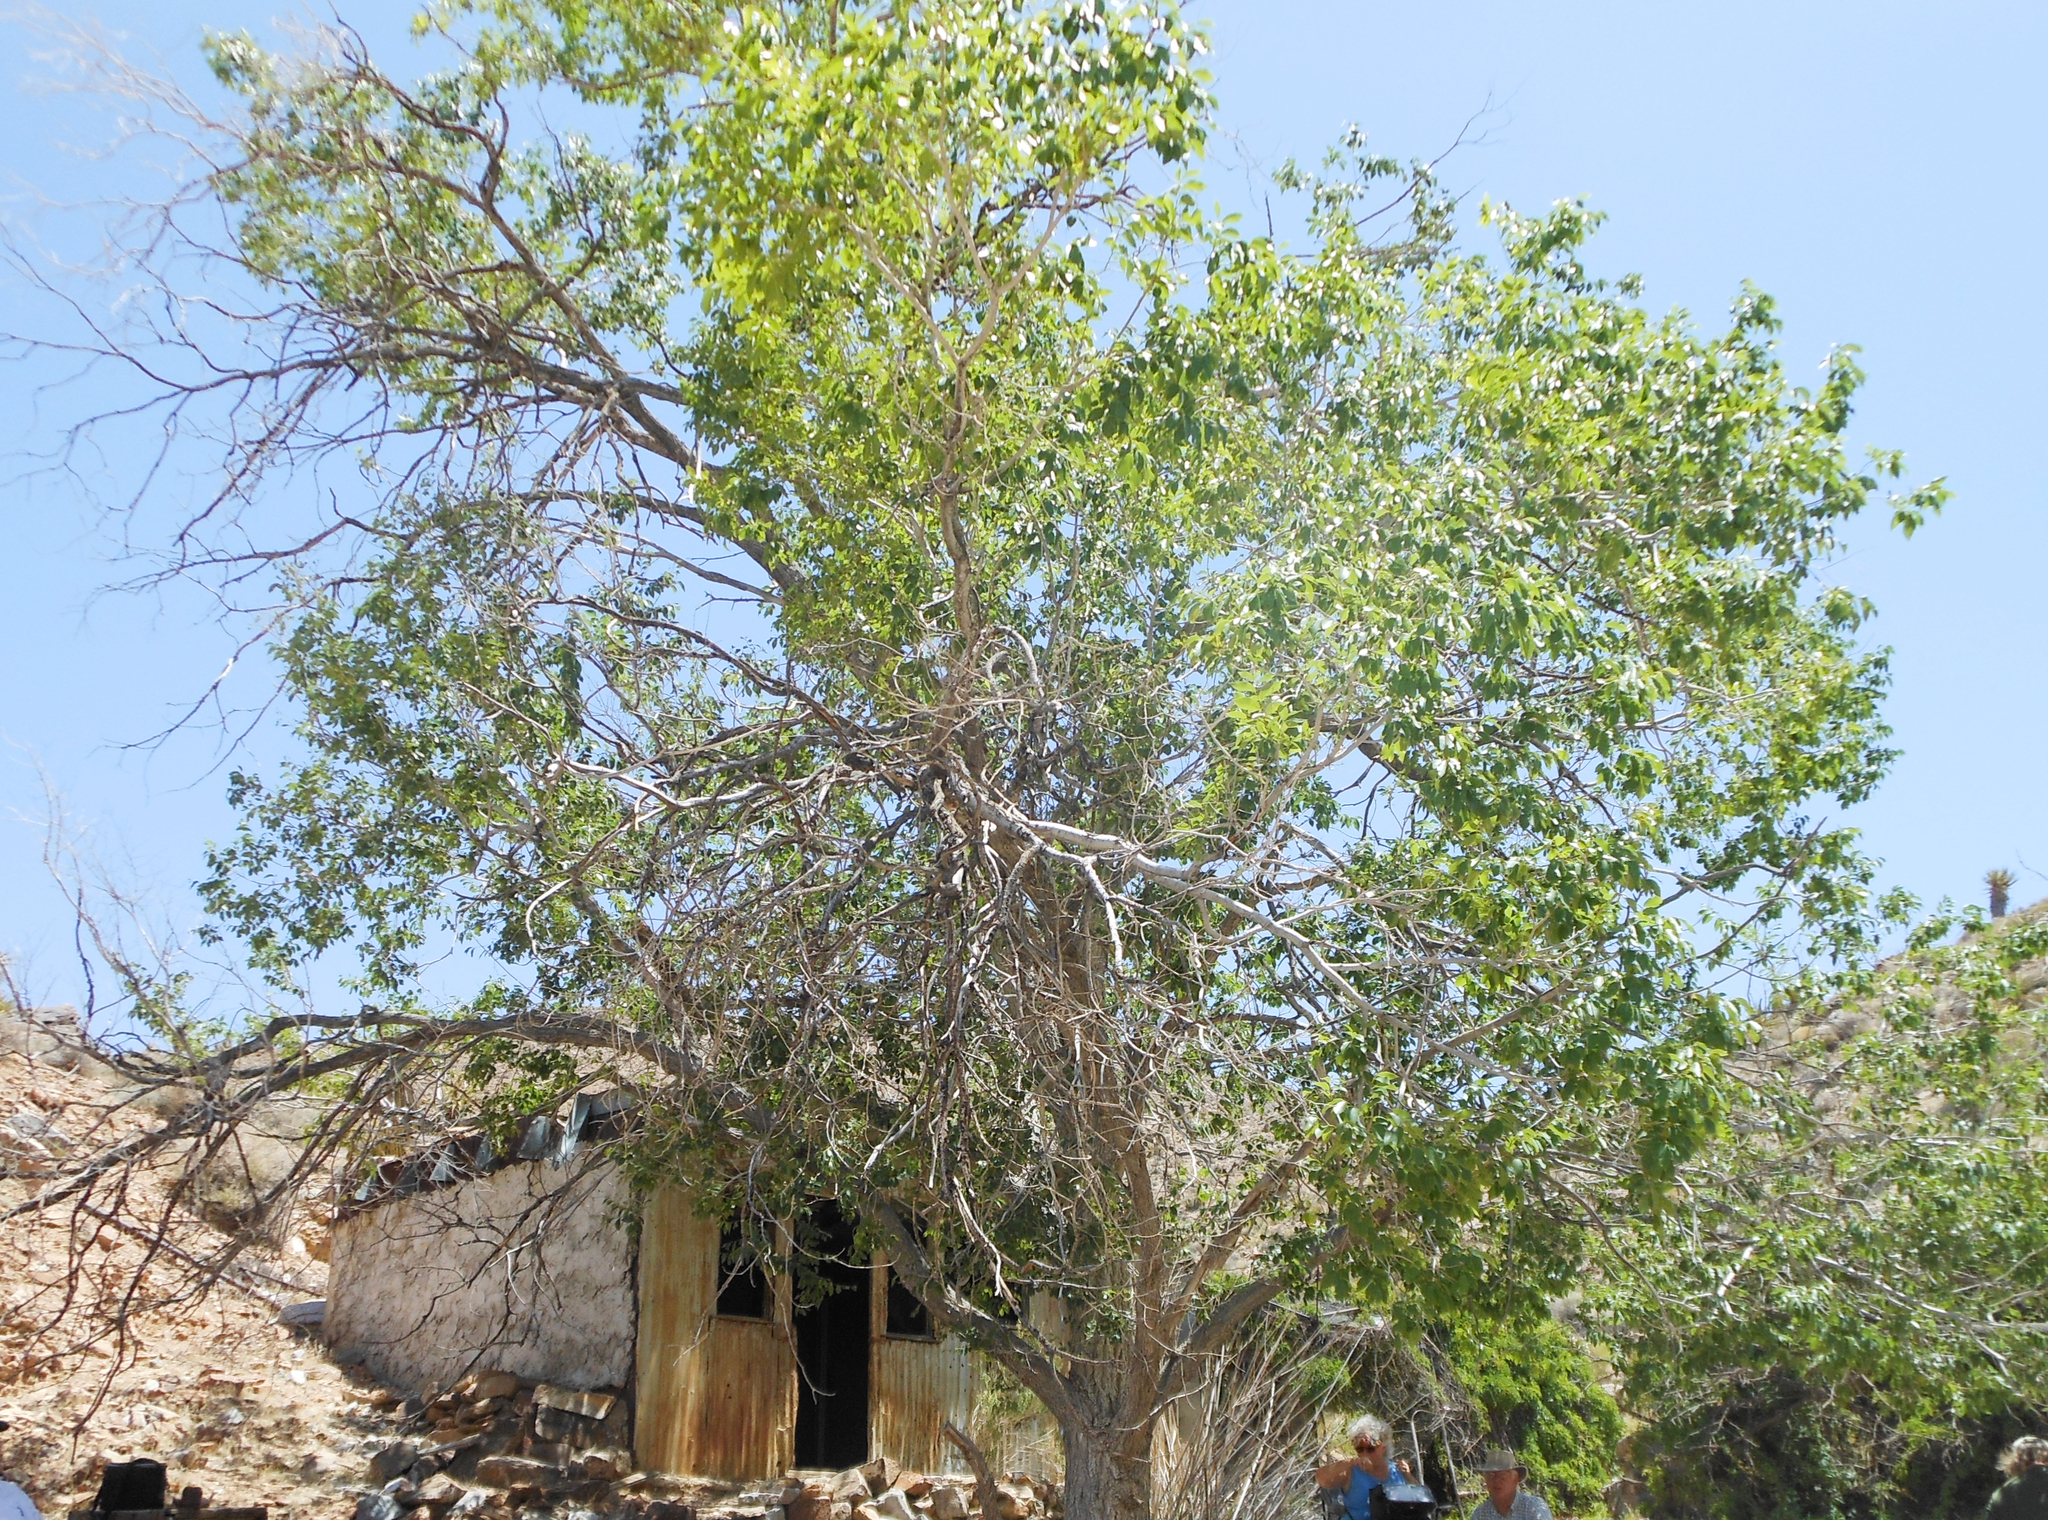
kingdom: Plantae
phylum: Tracheophyta
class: Magnoliopsida
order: Malpighiales
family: Salicaceae
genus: Populus
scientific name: Populus fremontii
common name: Fremont's cottonwood
